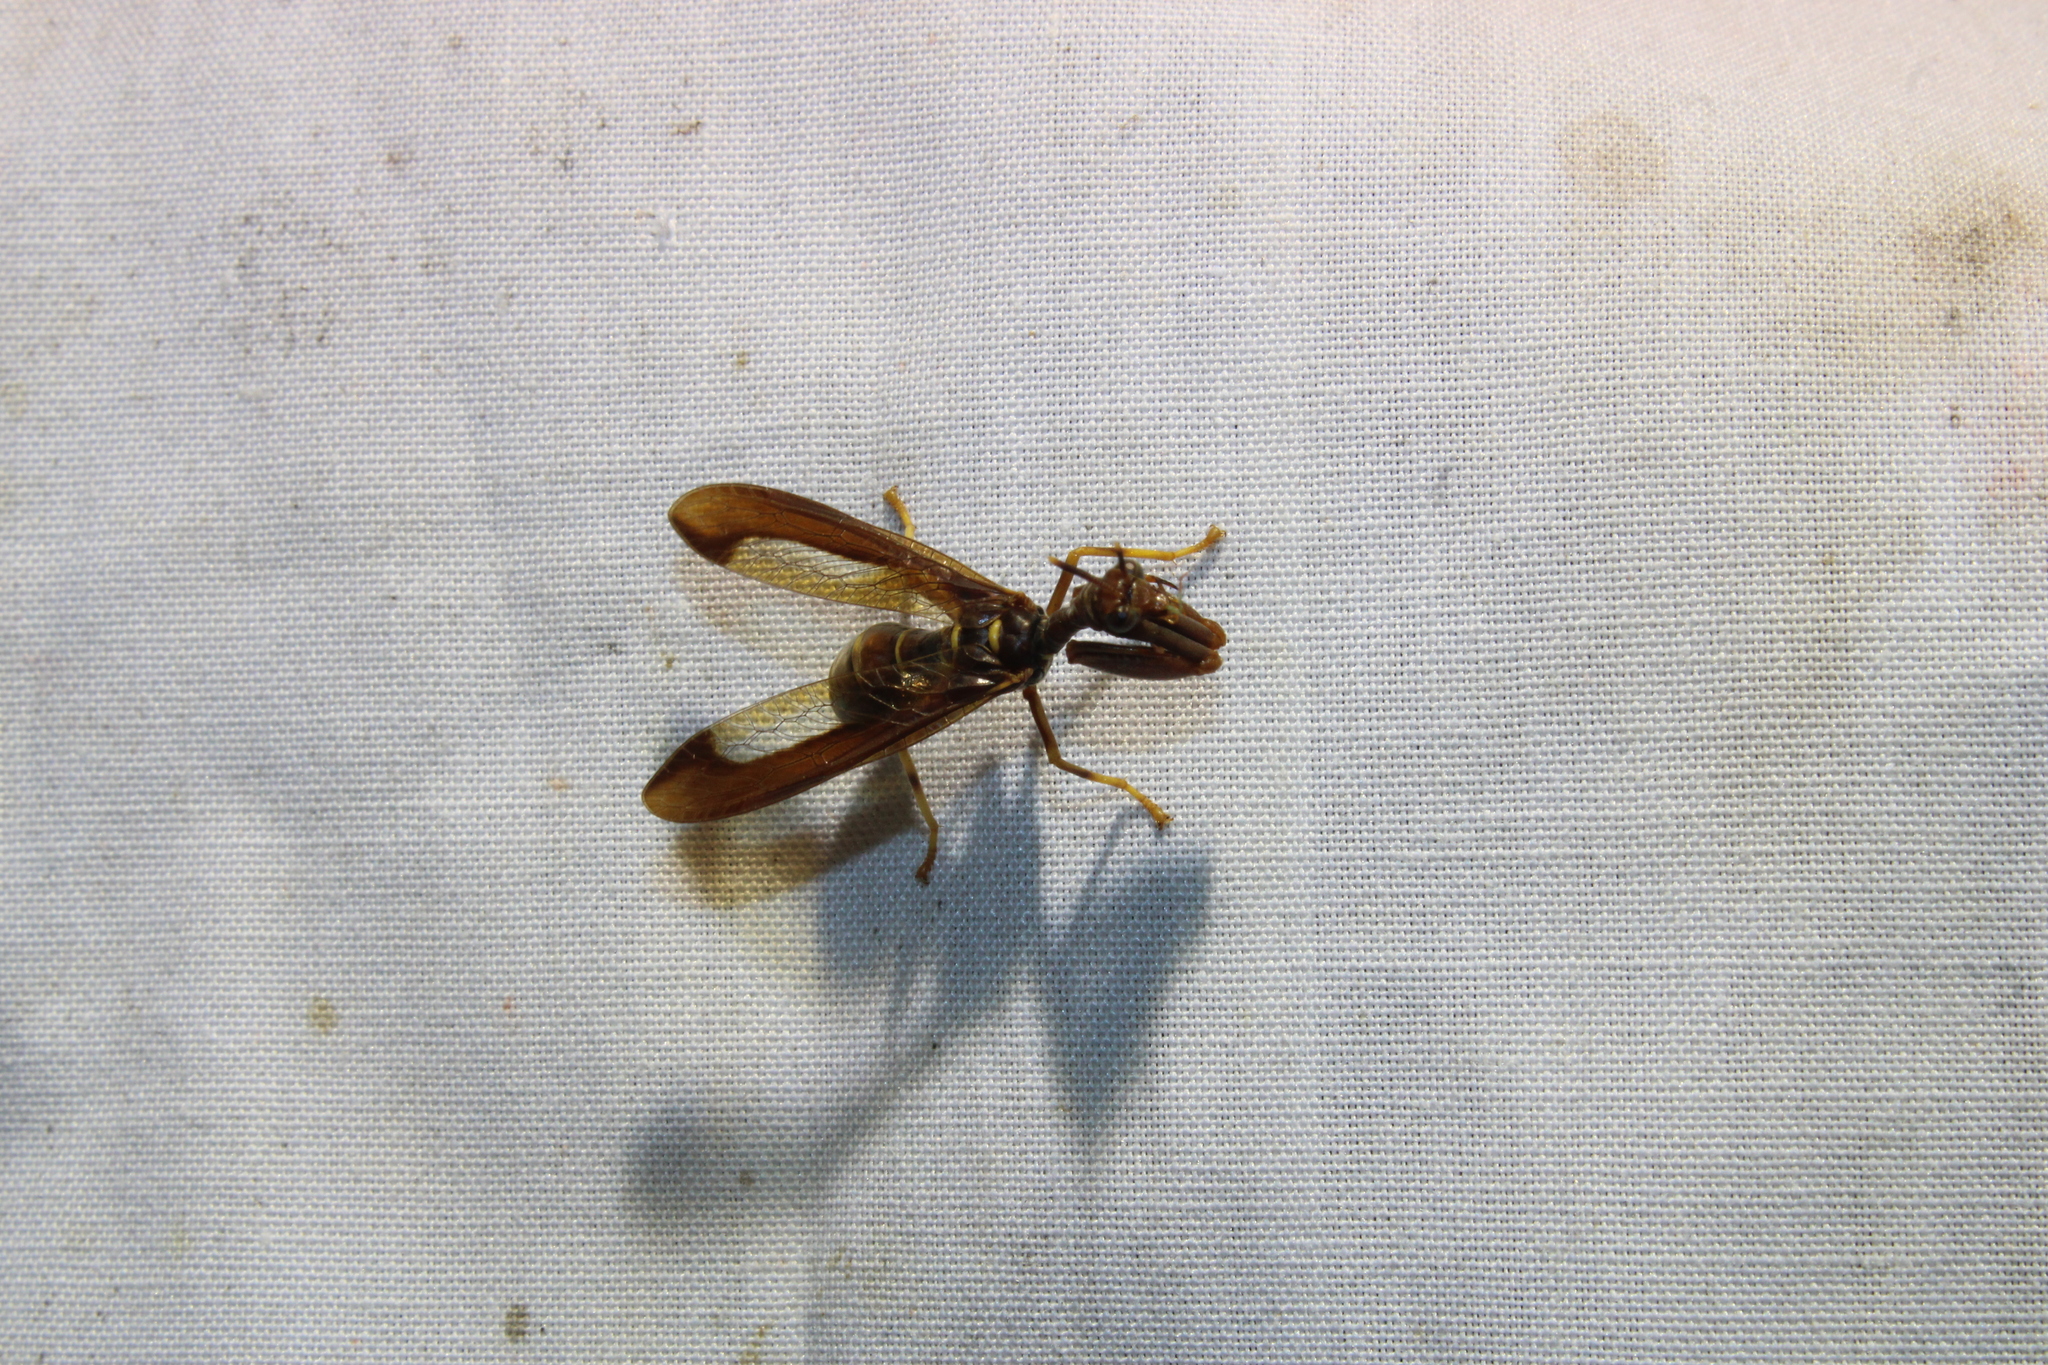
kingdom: Animalia
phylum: Arthropoda
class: Insecta
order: Neuroptera
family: Mantispidae
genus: Climaciella
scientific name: Climaciella brunnea
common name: Brown wasp mantidfly
